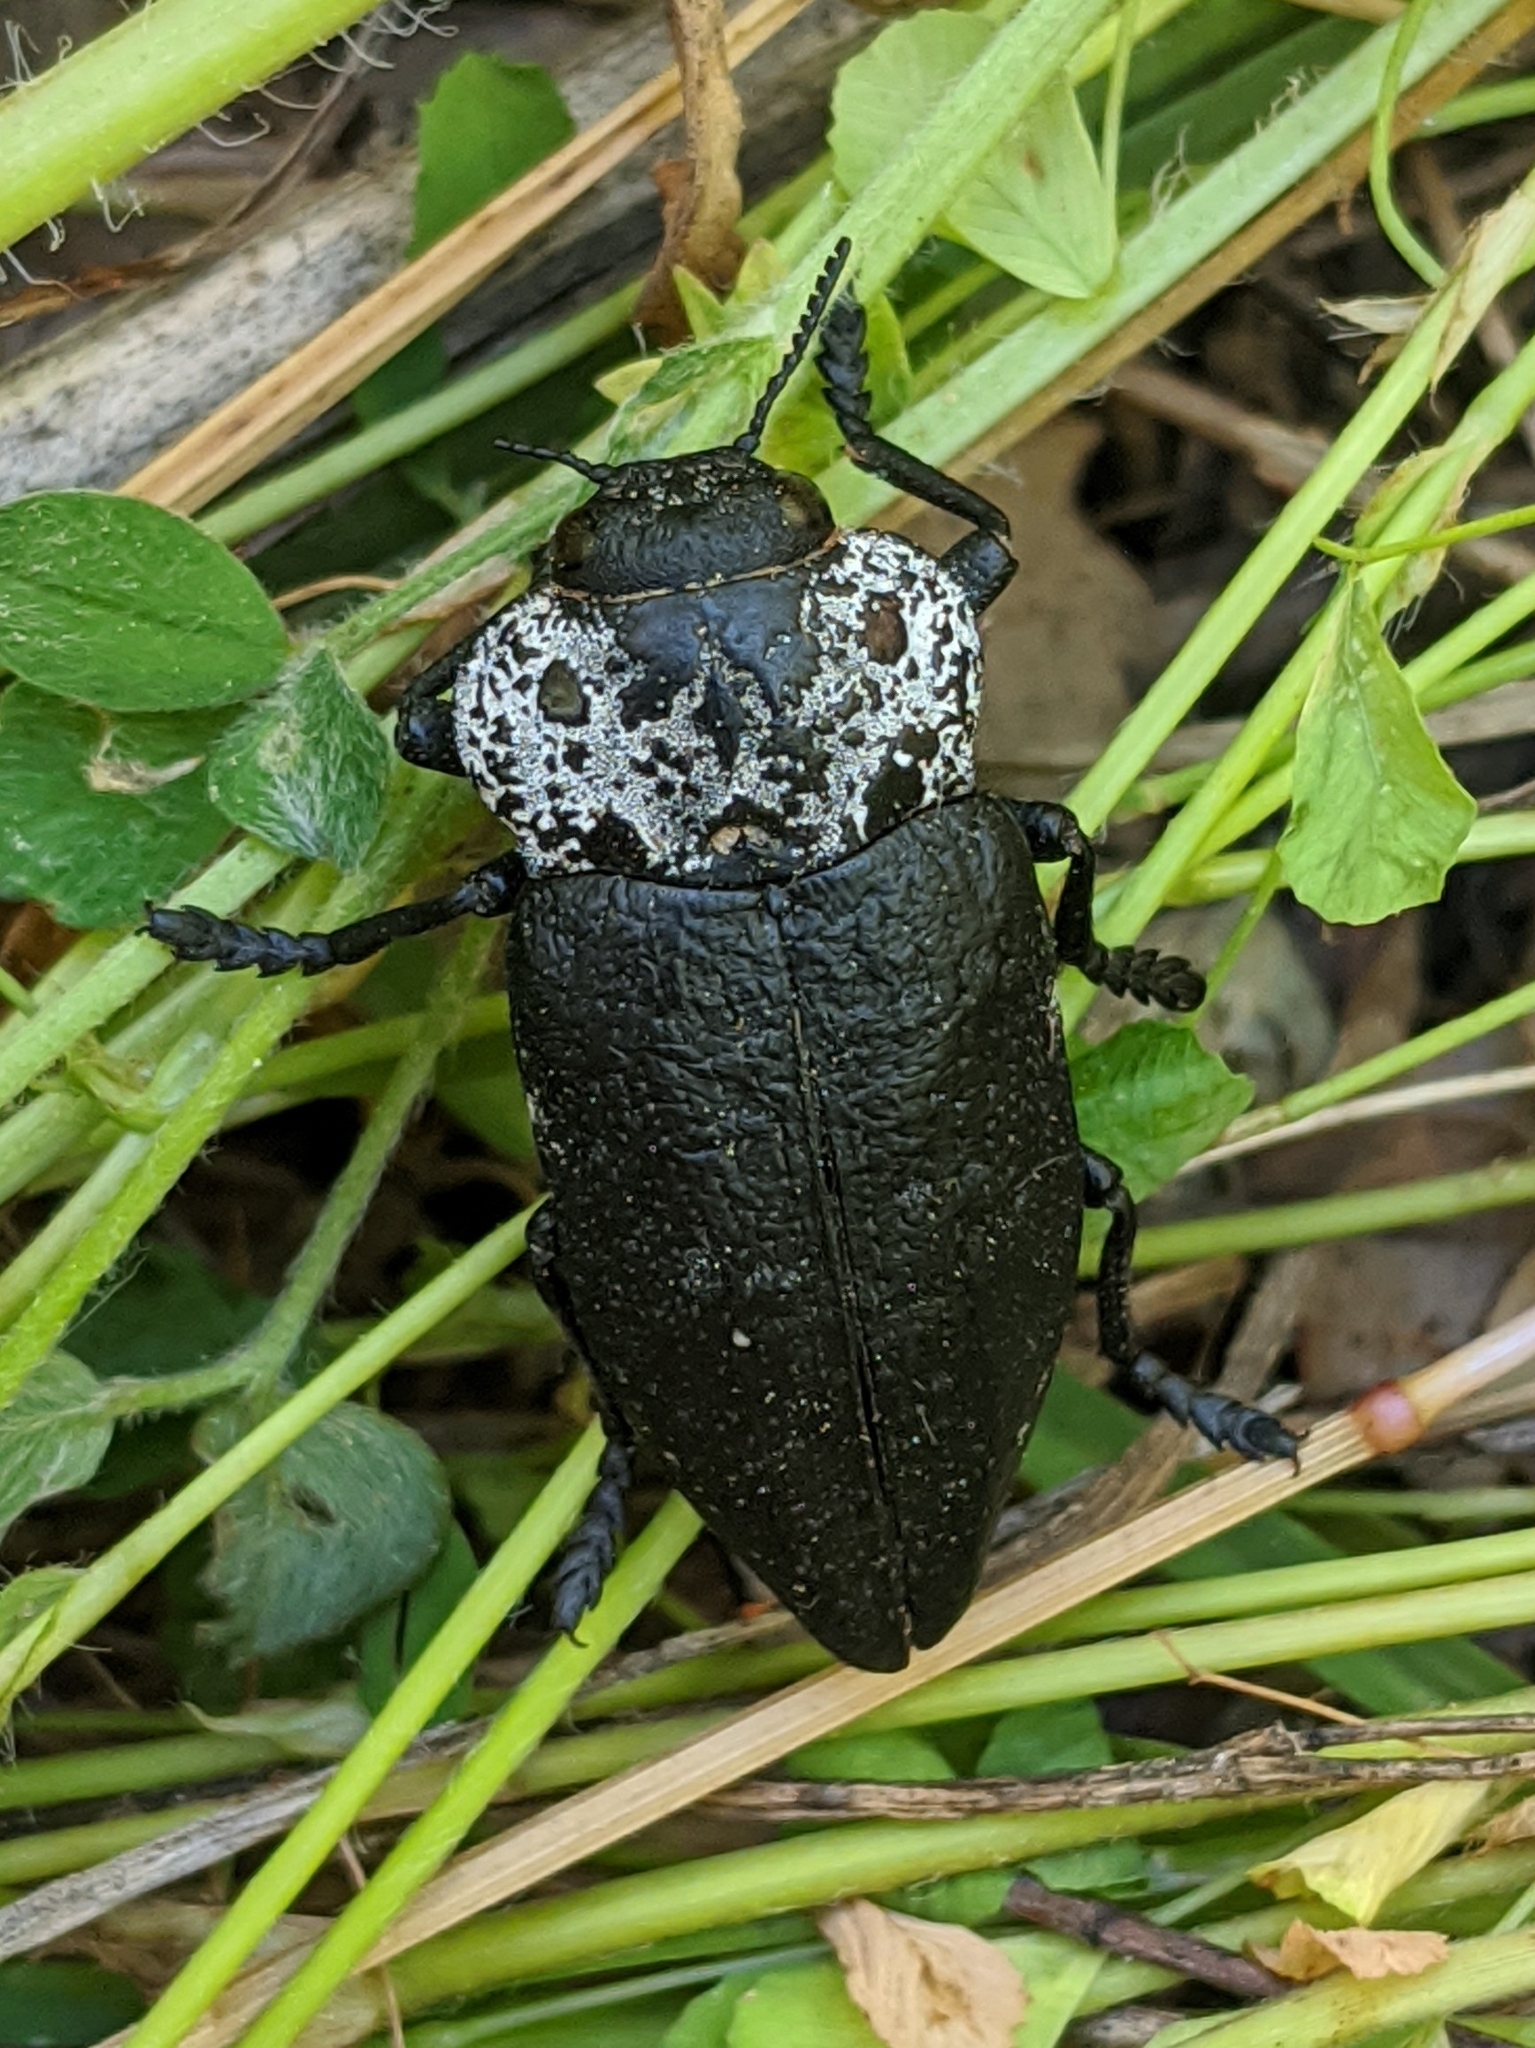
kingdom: Animalia
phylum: Arthropoda
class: Insecta
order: Coleoptera
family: Buprestidae
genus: Capnodis
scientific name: Capnodis tenebrionis
